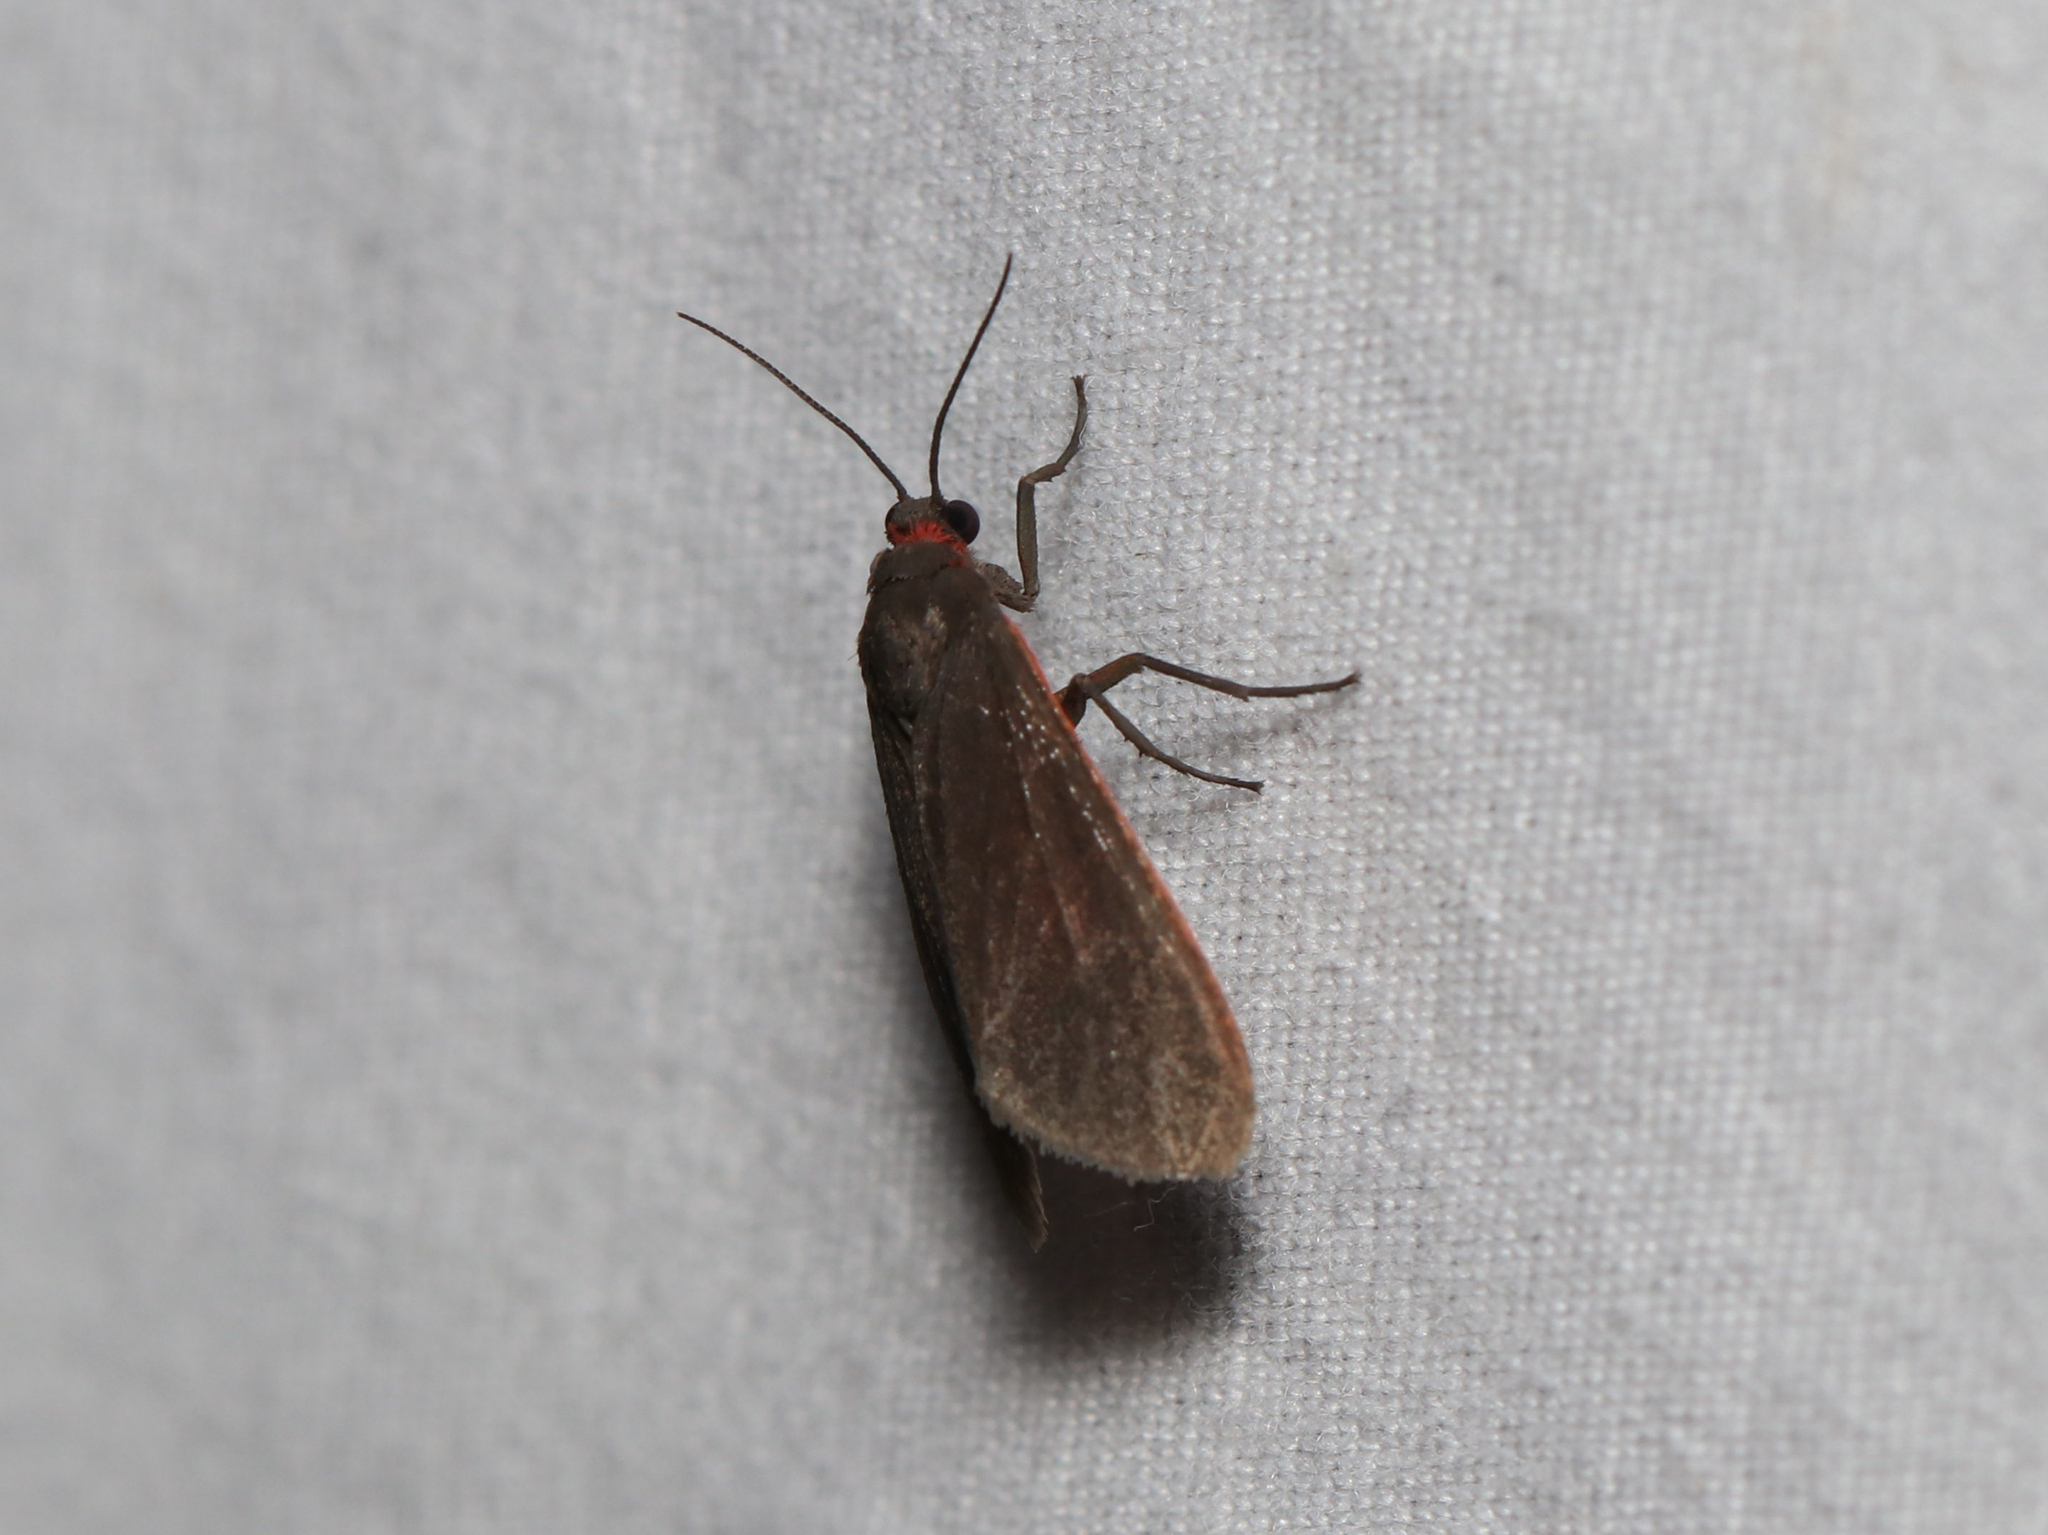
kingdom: Animalia
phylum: Arthropoda
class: Insecta
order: Lepidoptera
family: Erebidae
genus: Virbia
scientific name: Virbia laeta
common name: Joyful holomelina moth
